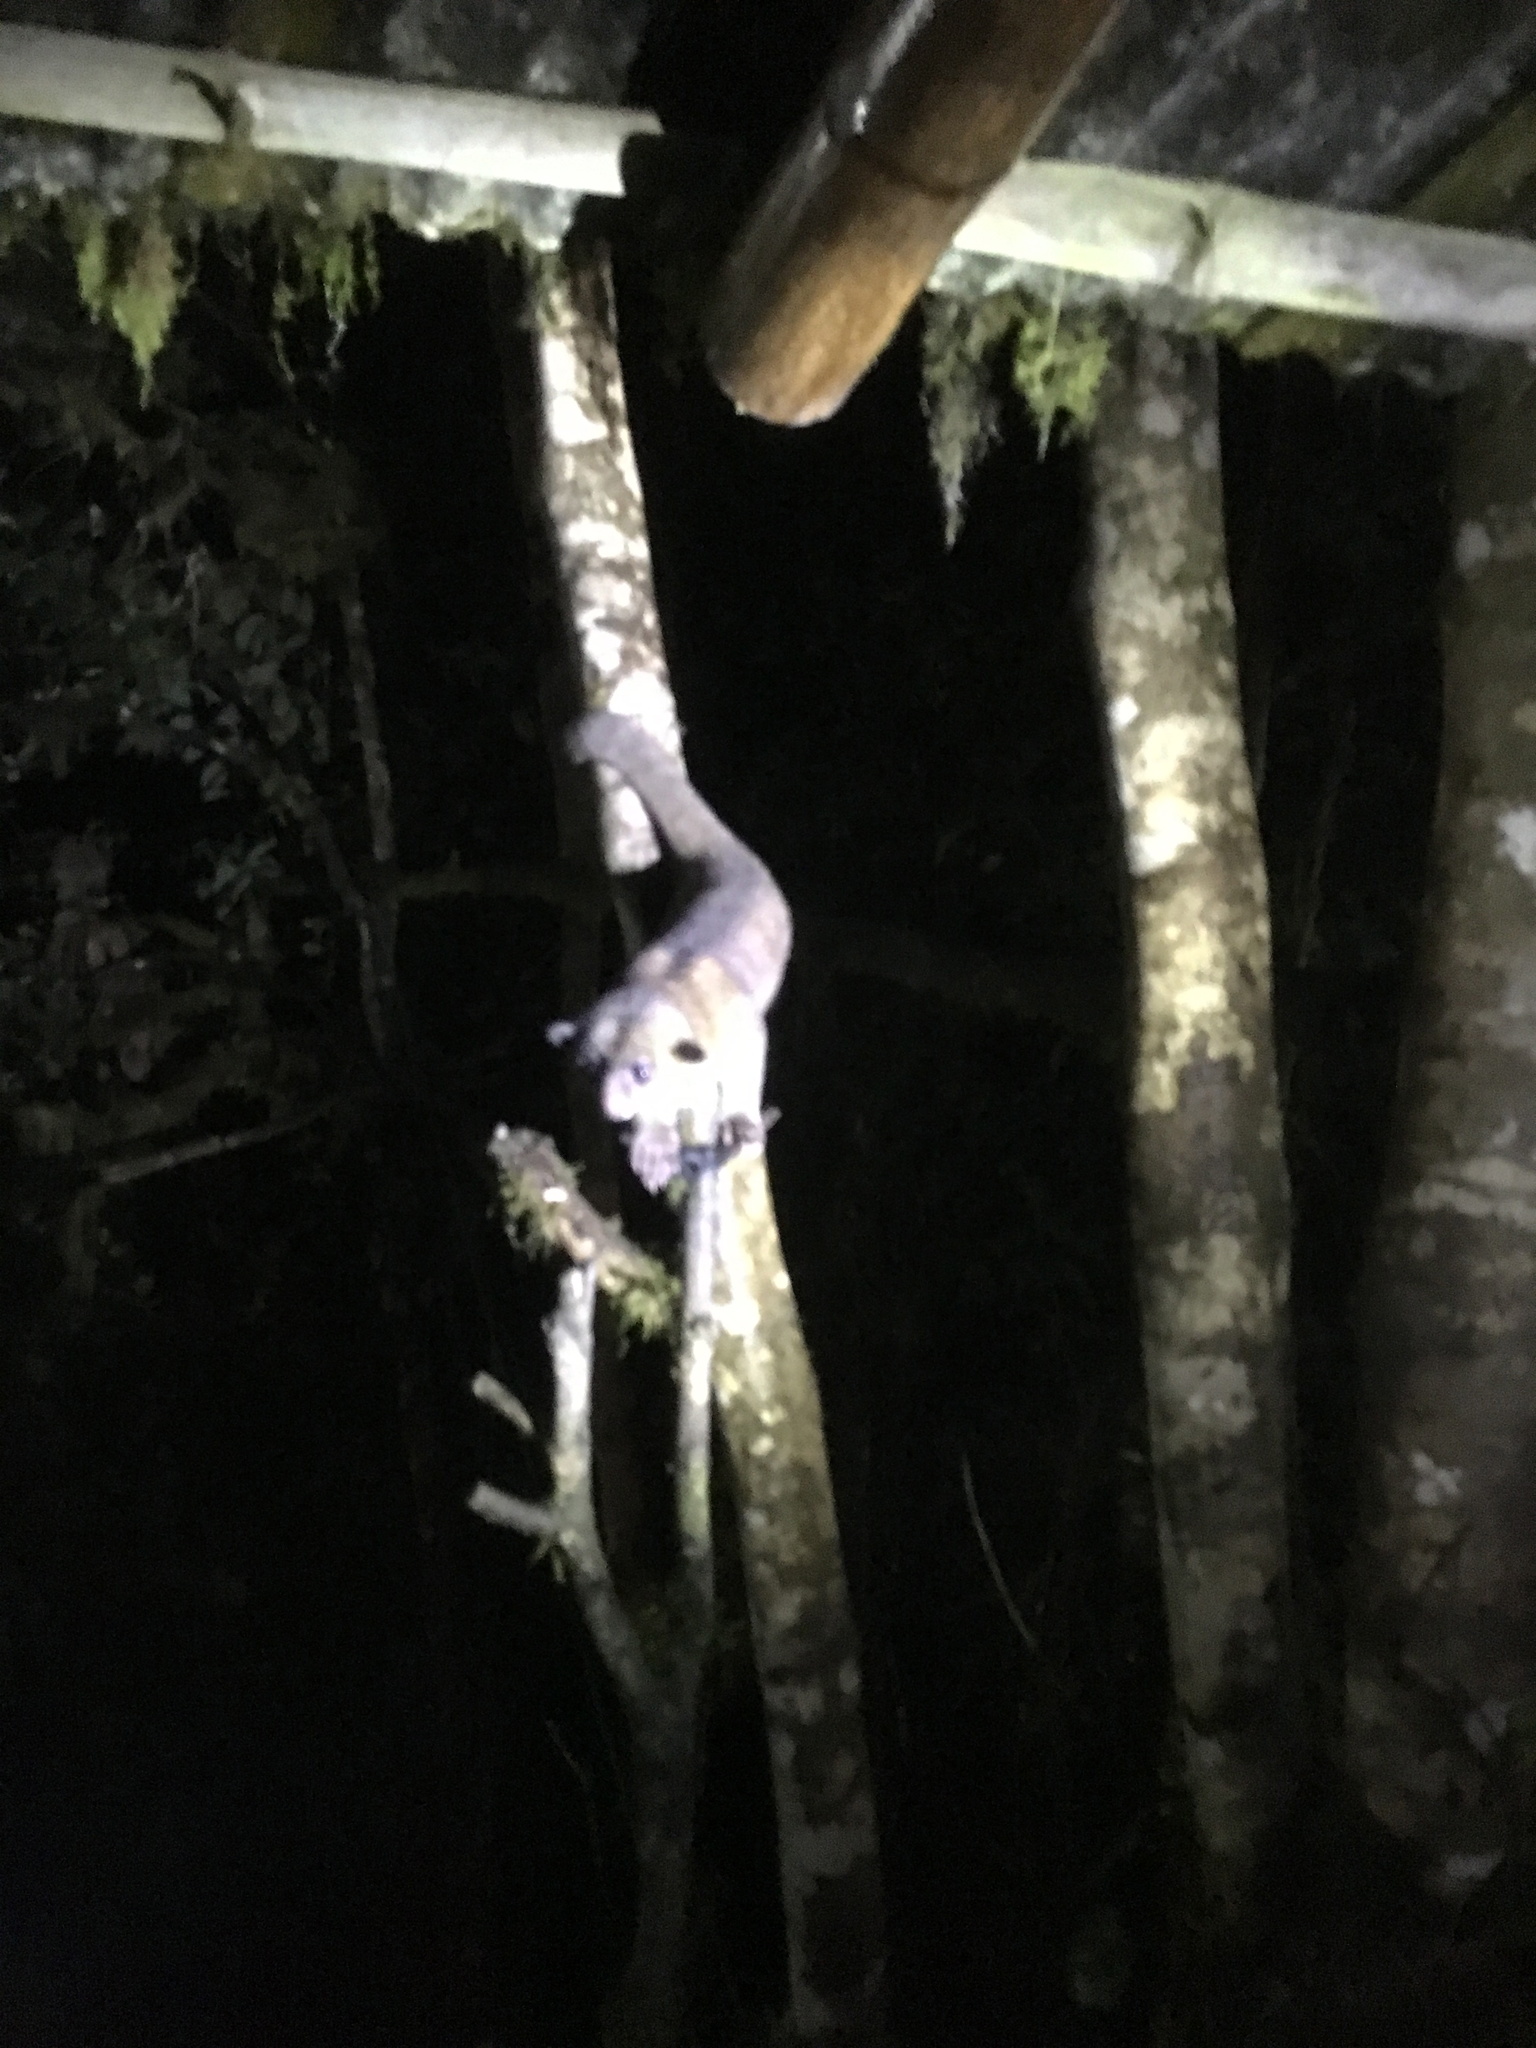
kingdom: Animalia
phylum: Chordata
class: Mammalia
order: Carnivora
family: Procyonidae
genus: Potos
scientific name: Potos flavus
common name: Kinkajou
